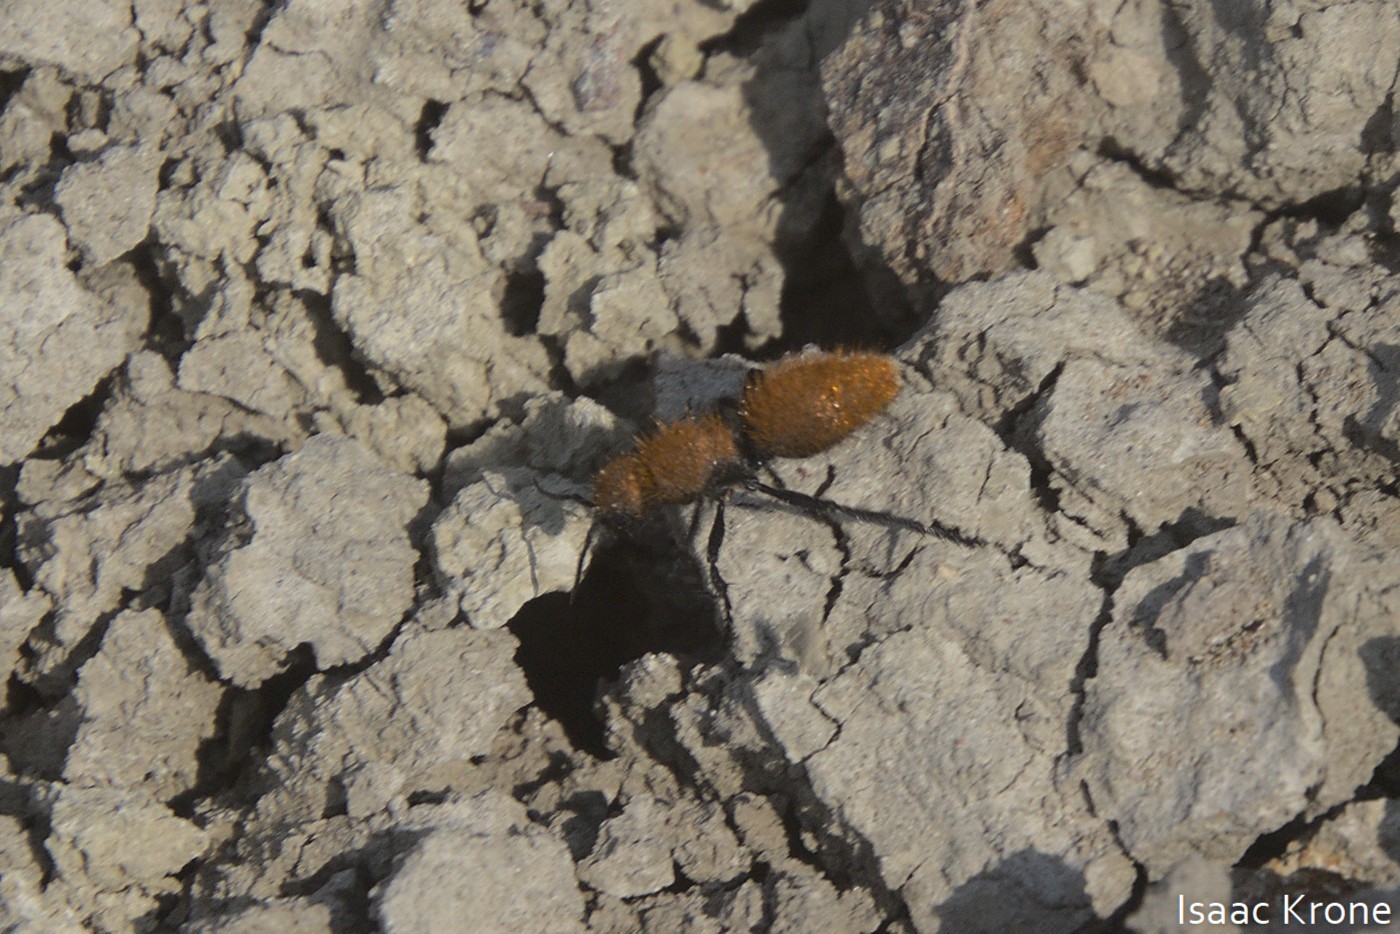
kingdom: Animalia
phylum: Arthropoda
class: Insecta
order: Hymenoptera
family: Mutillidae
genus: Dasymutilla
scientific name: Dasymutilla
